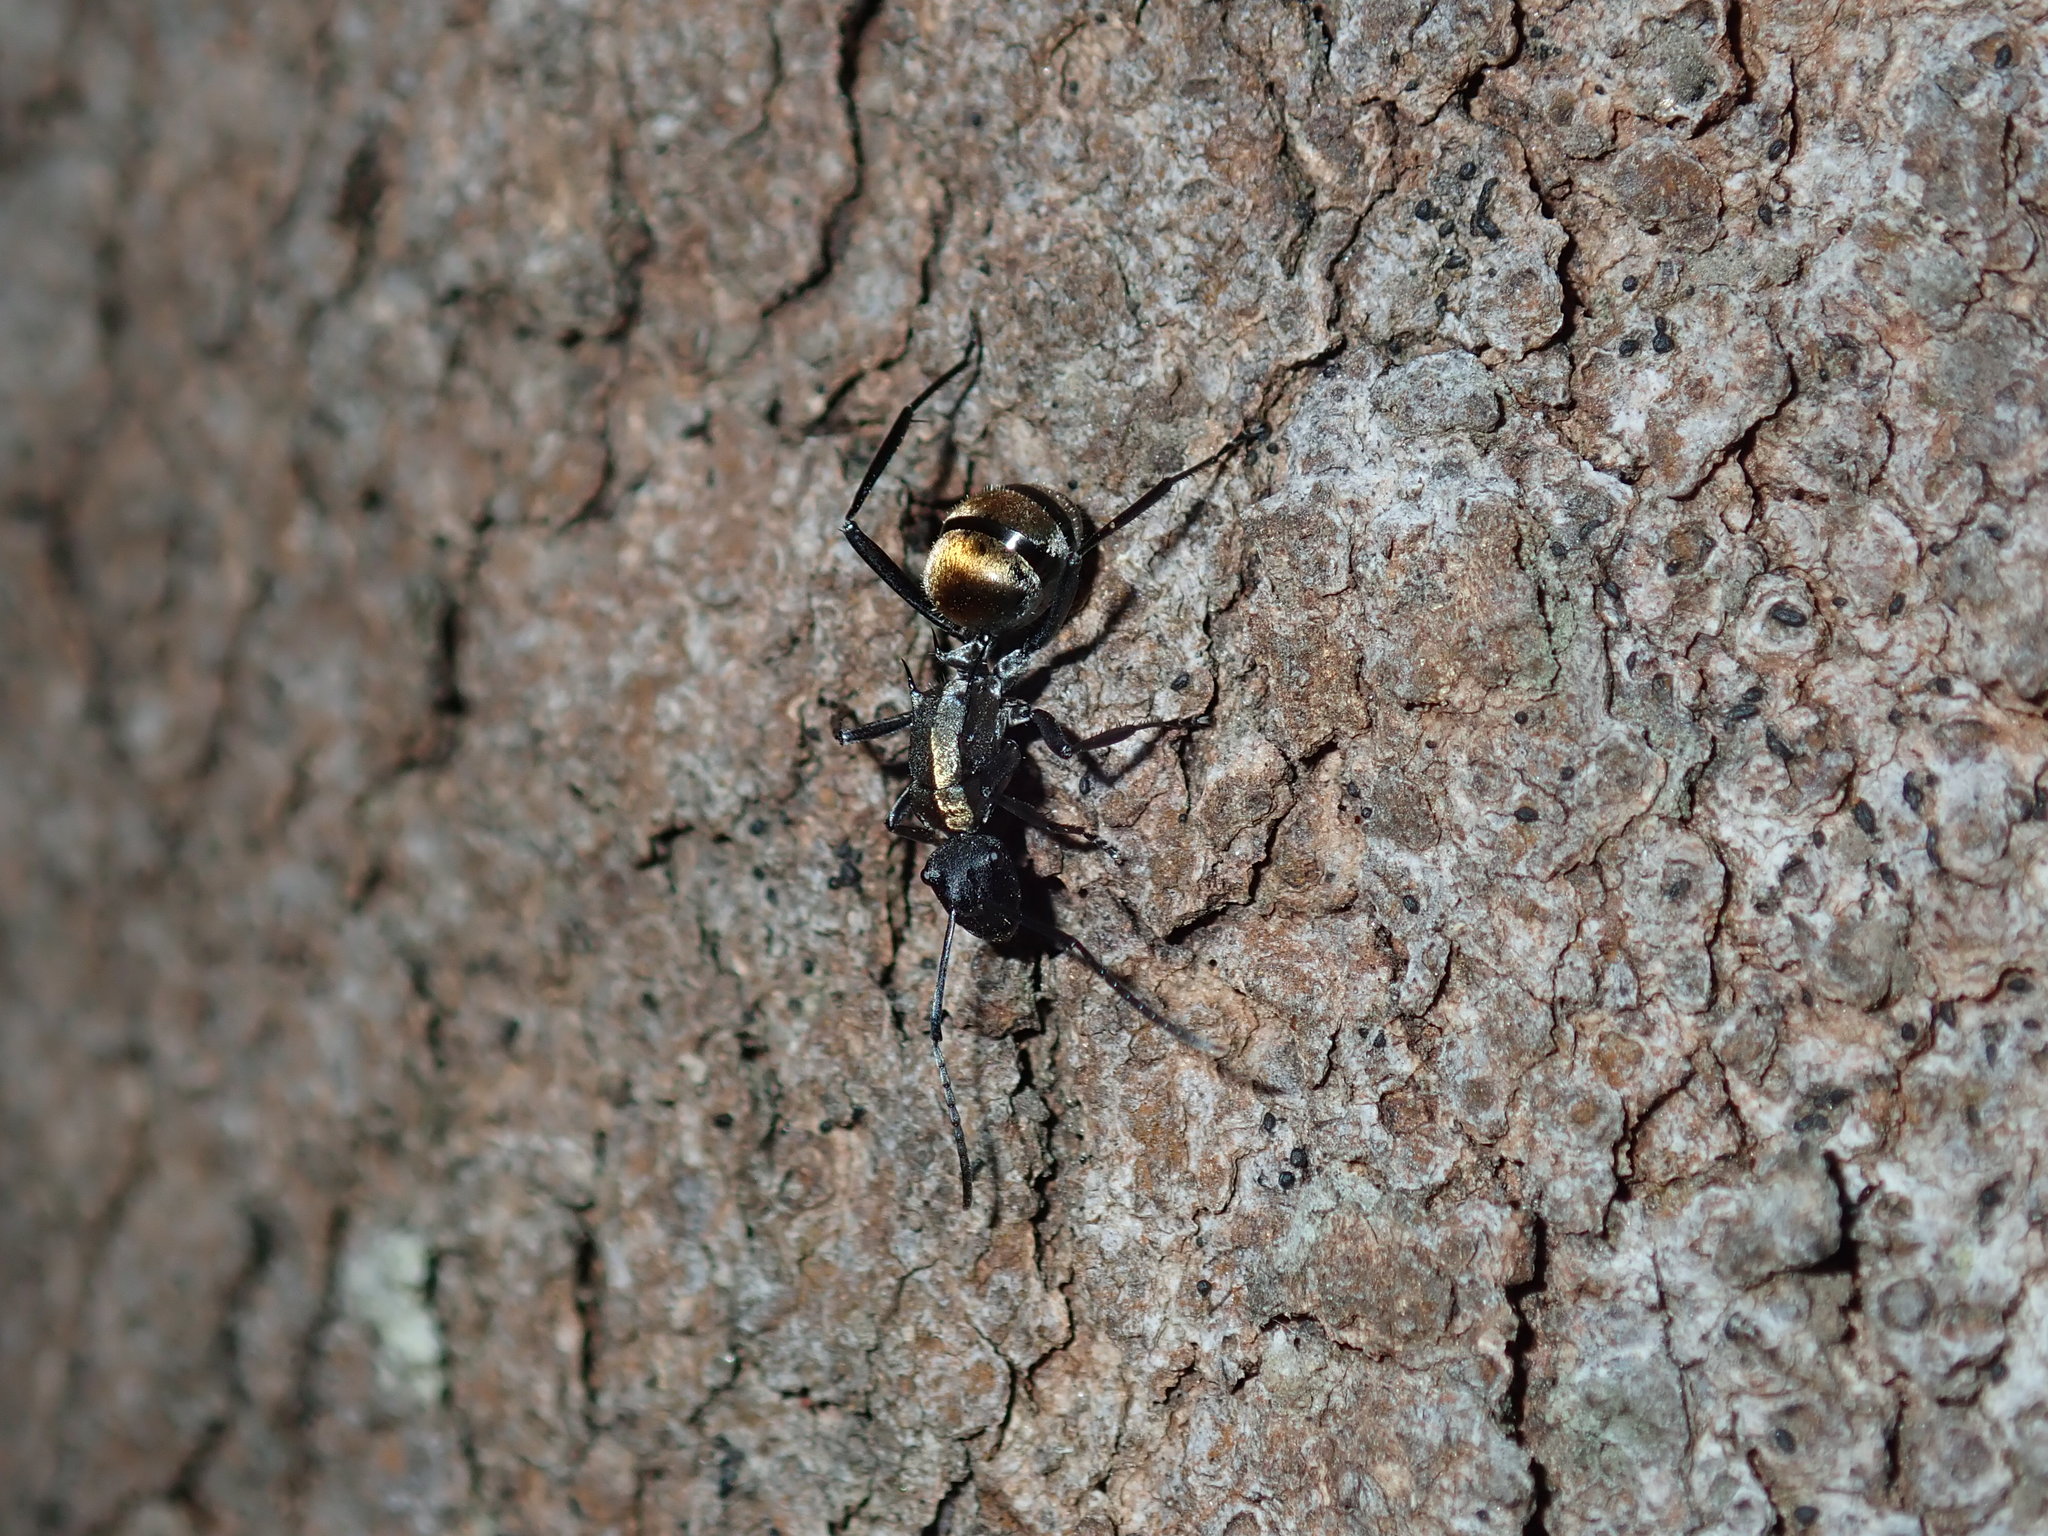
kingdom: Animalia
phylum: Arthropoda
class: Insecta
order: Hymenoptera
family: Formicidae
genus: Polyrhachis
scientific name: Polyrhachis ammon
